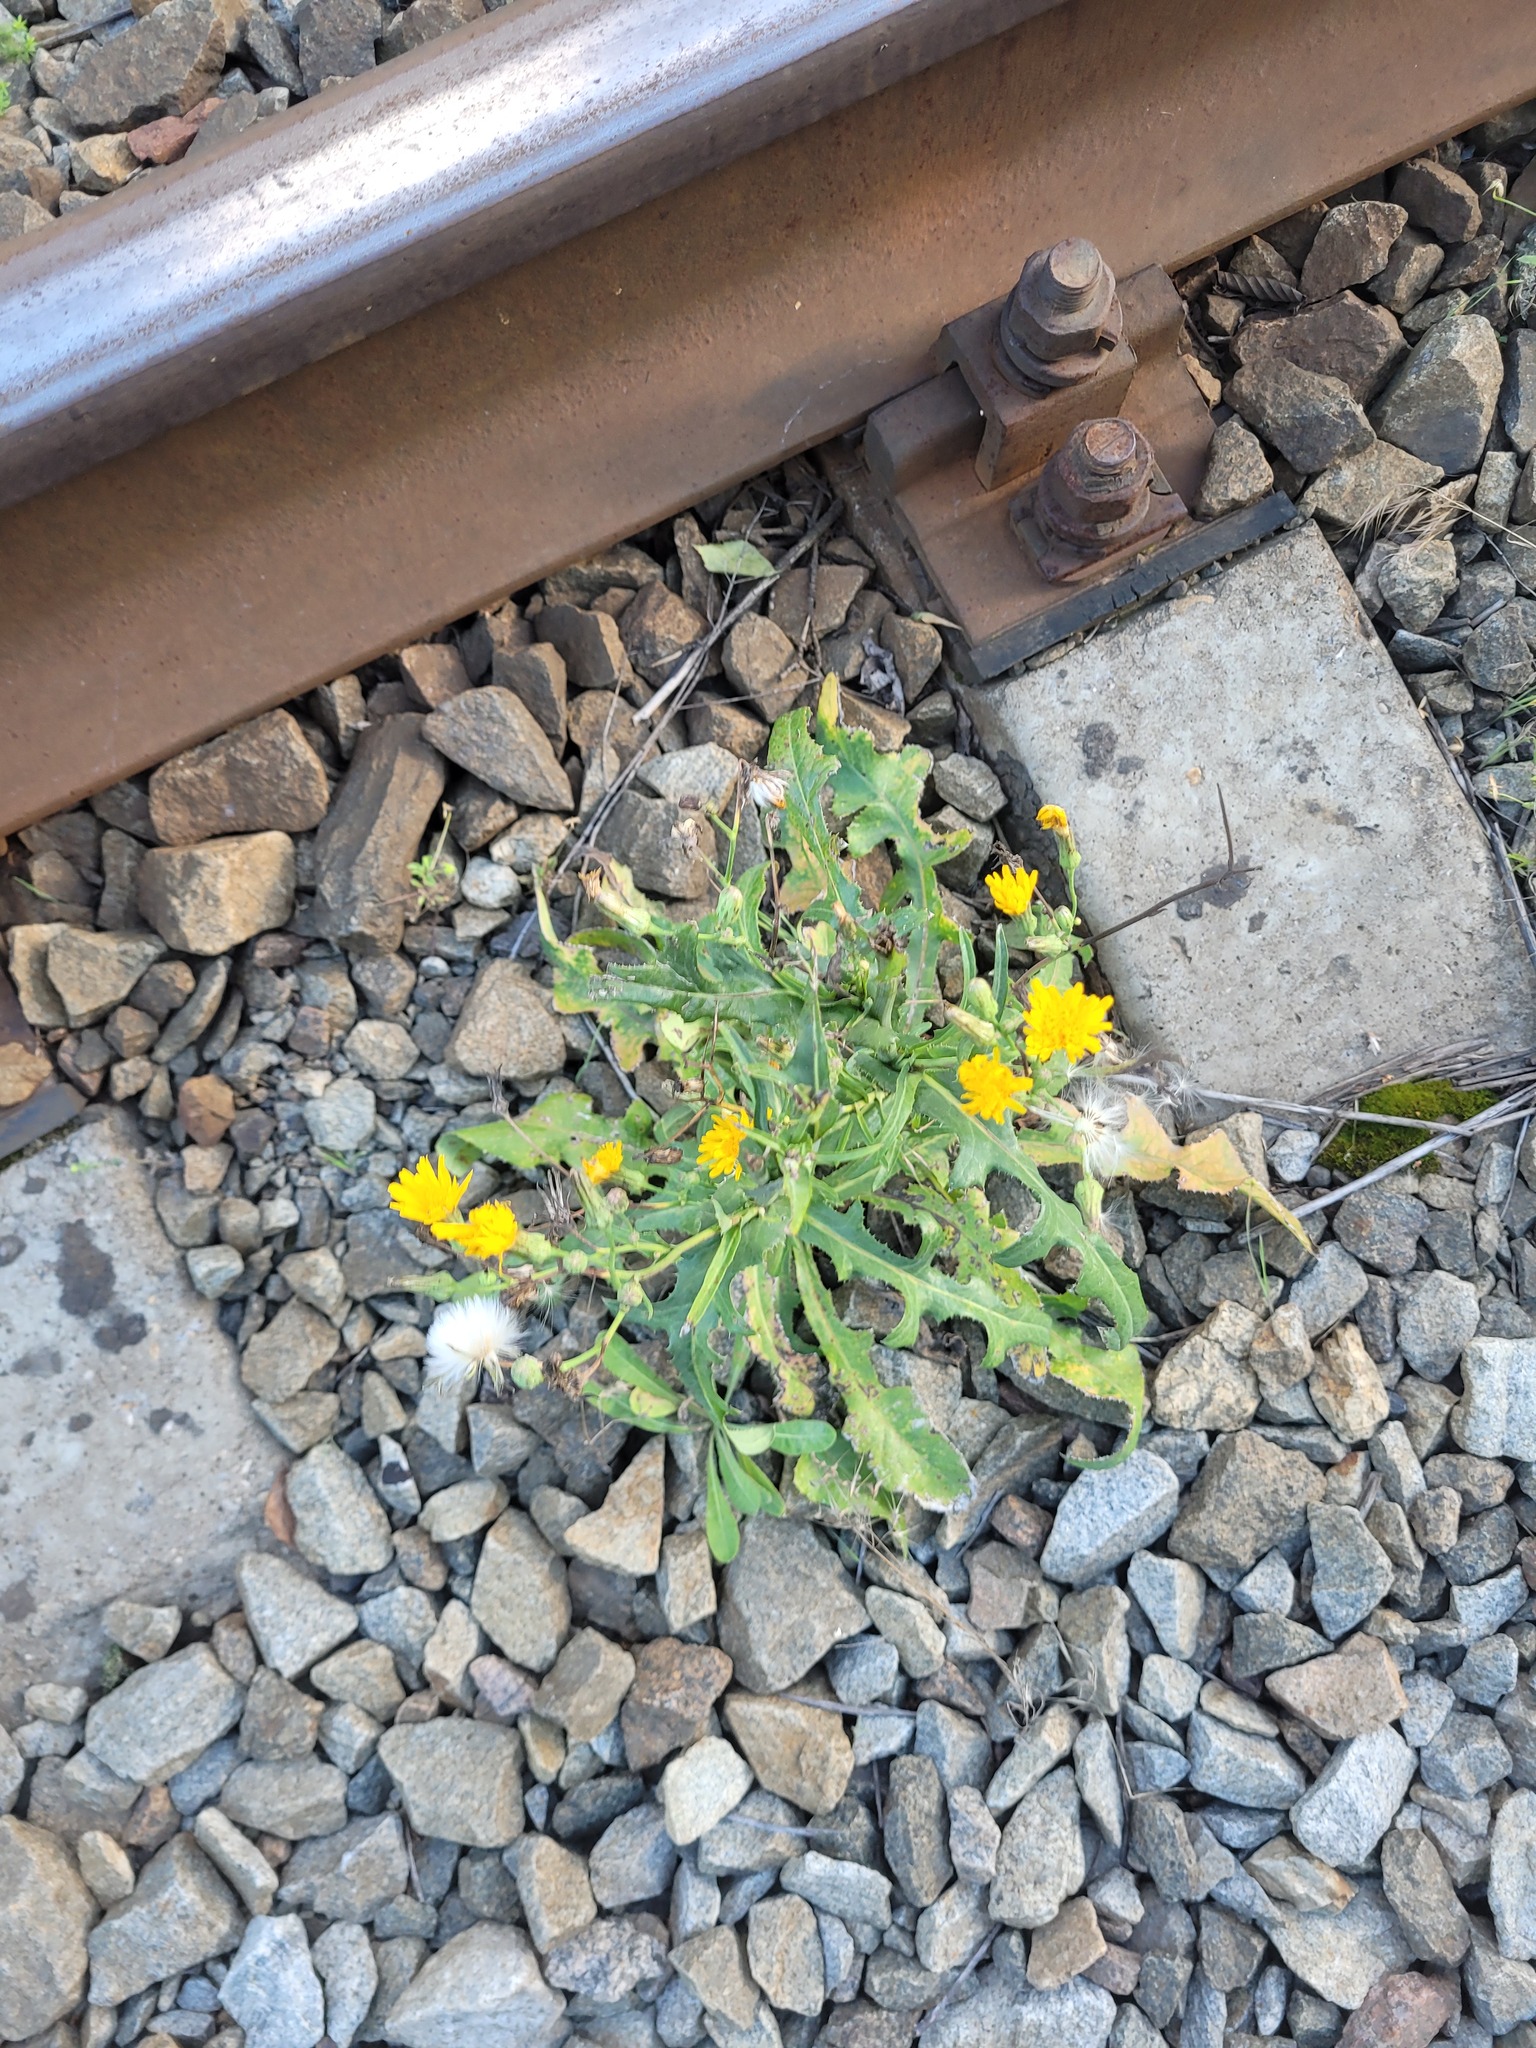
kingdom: Plantae
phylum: Tracheophyta
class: Magnoliopsida
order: Asterales
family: Asteraceae
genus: Sonchus
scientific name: Sonchus arvensis
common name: Perennial sow-thistle
